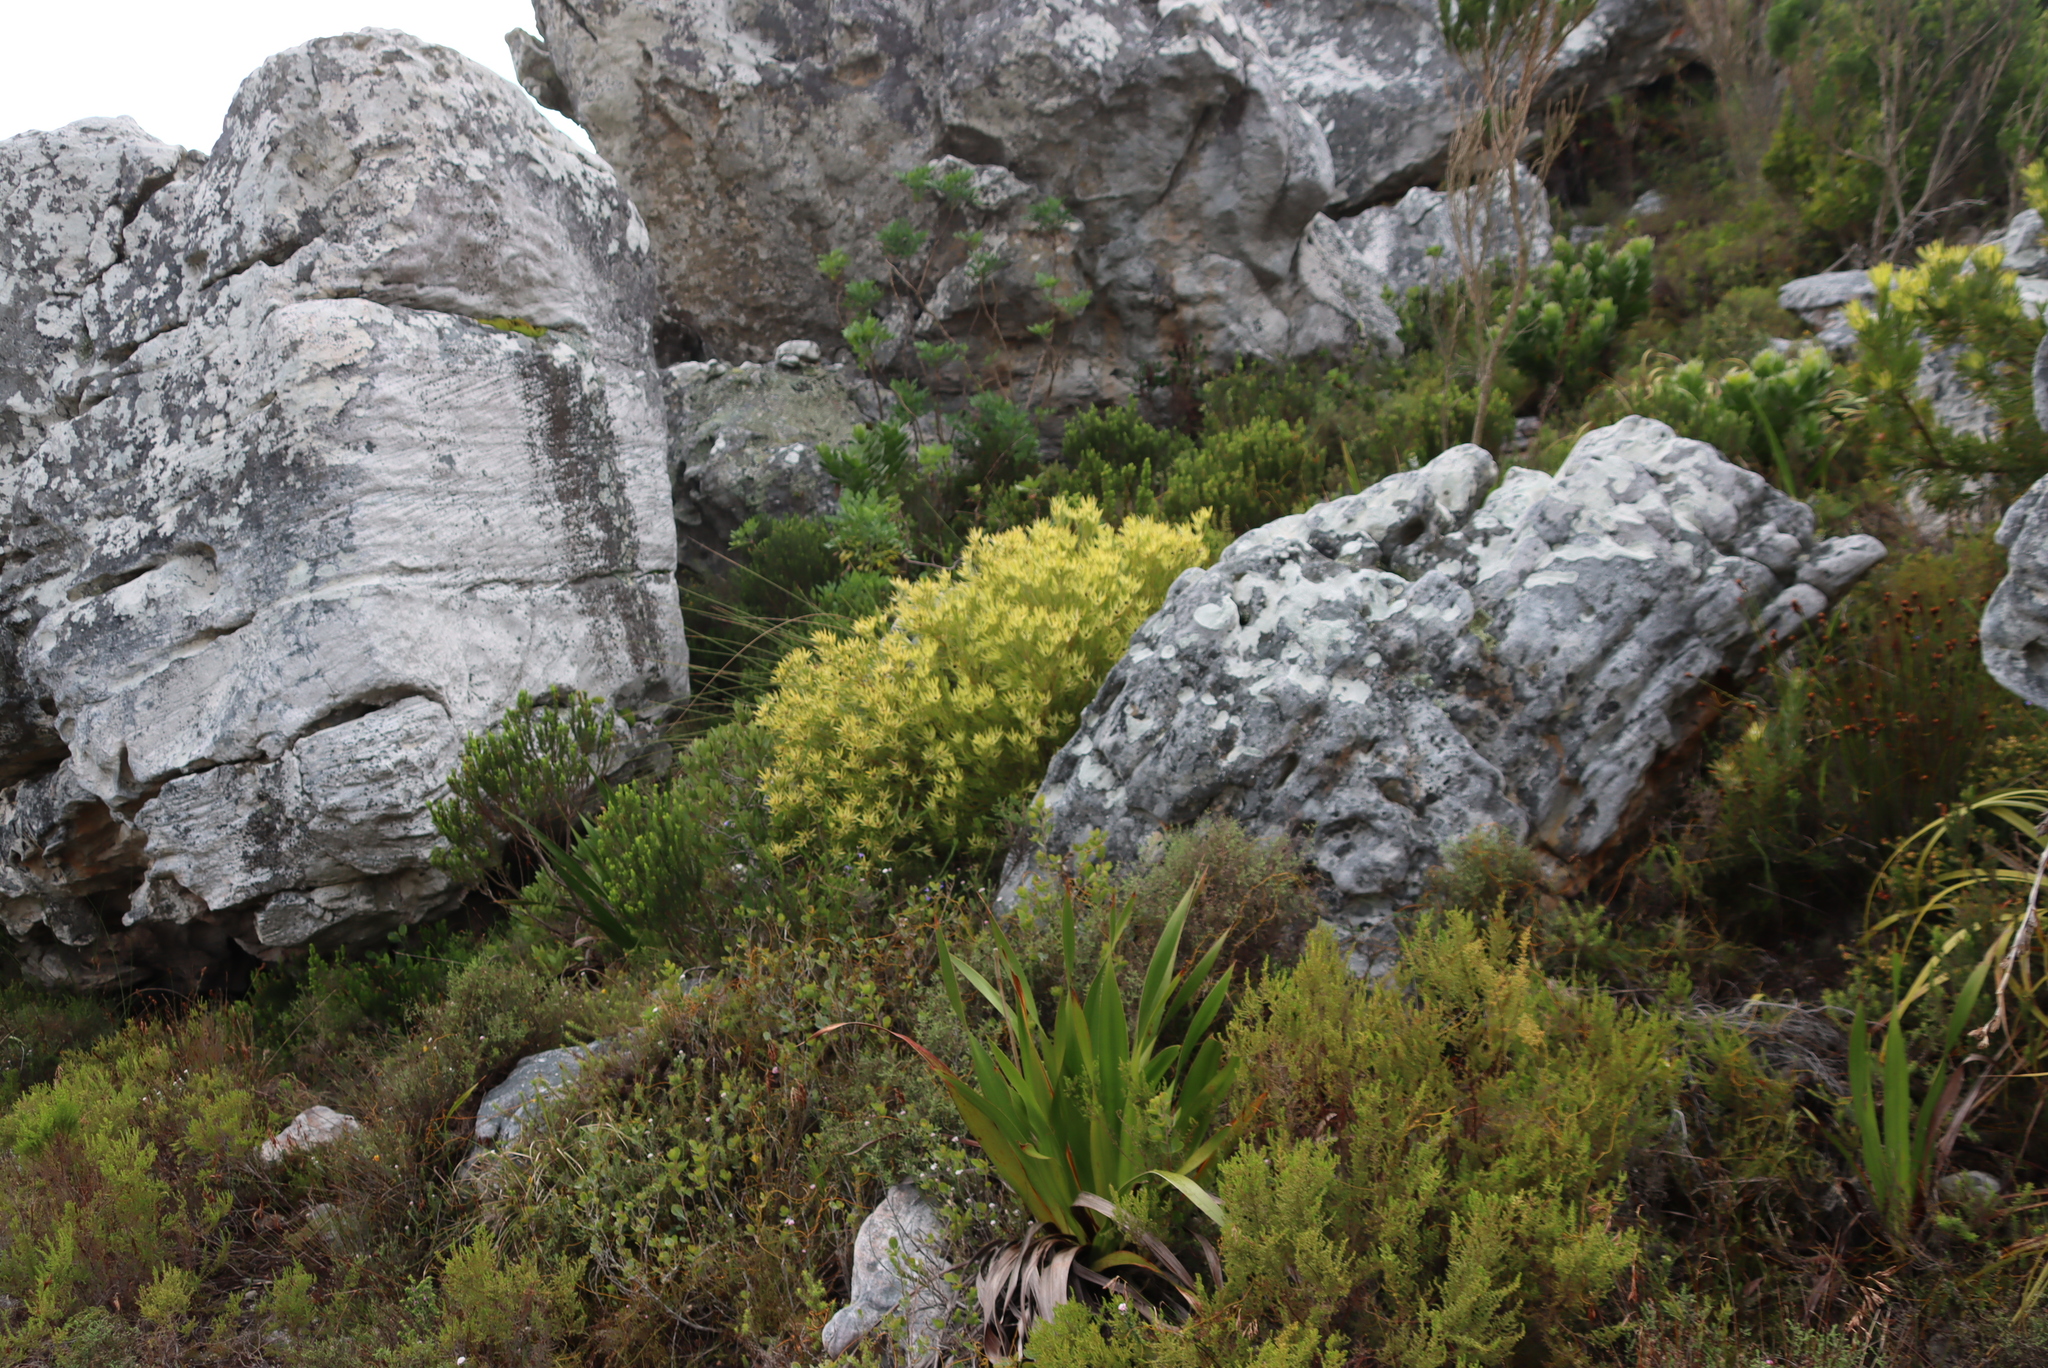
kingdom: Plantae
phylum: Tracheophyta
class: Magnoliopsida
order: Proteales
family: Proteaceae
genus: Leucadendron
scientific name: Leucadendron xanthoconus
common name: Sickle-leaf conebush
